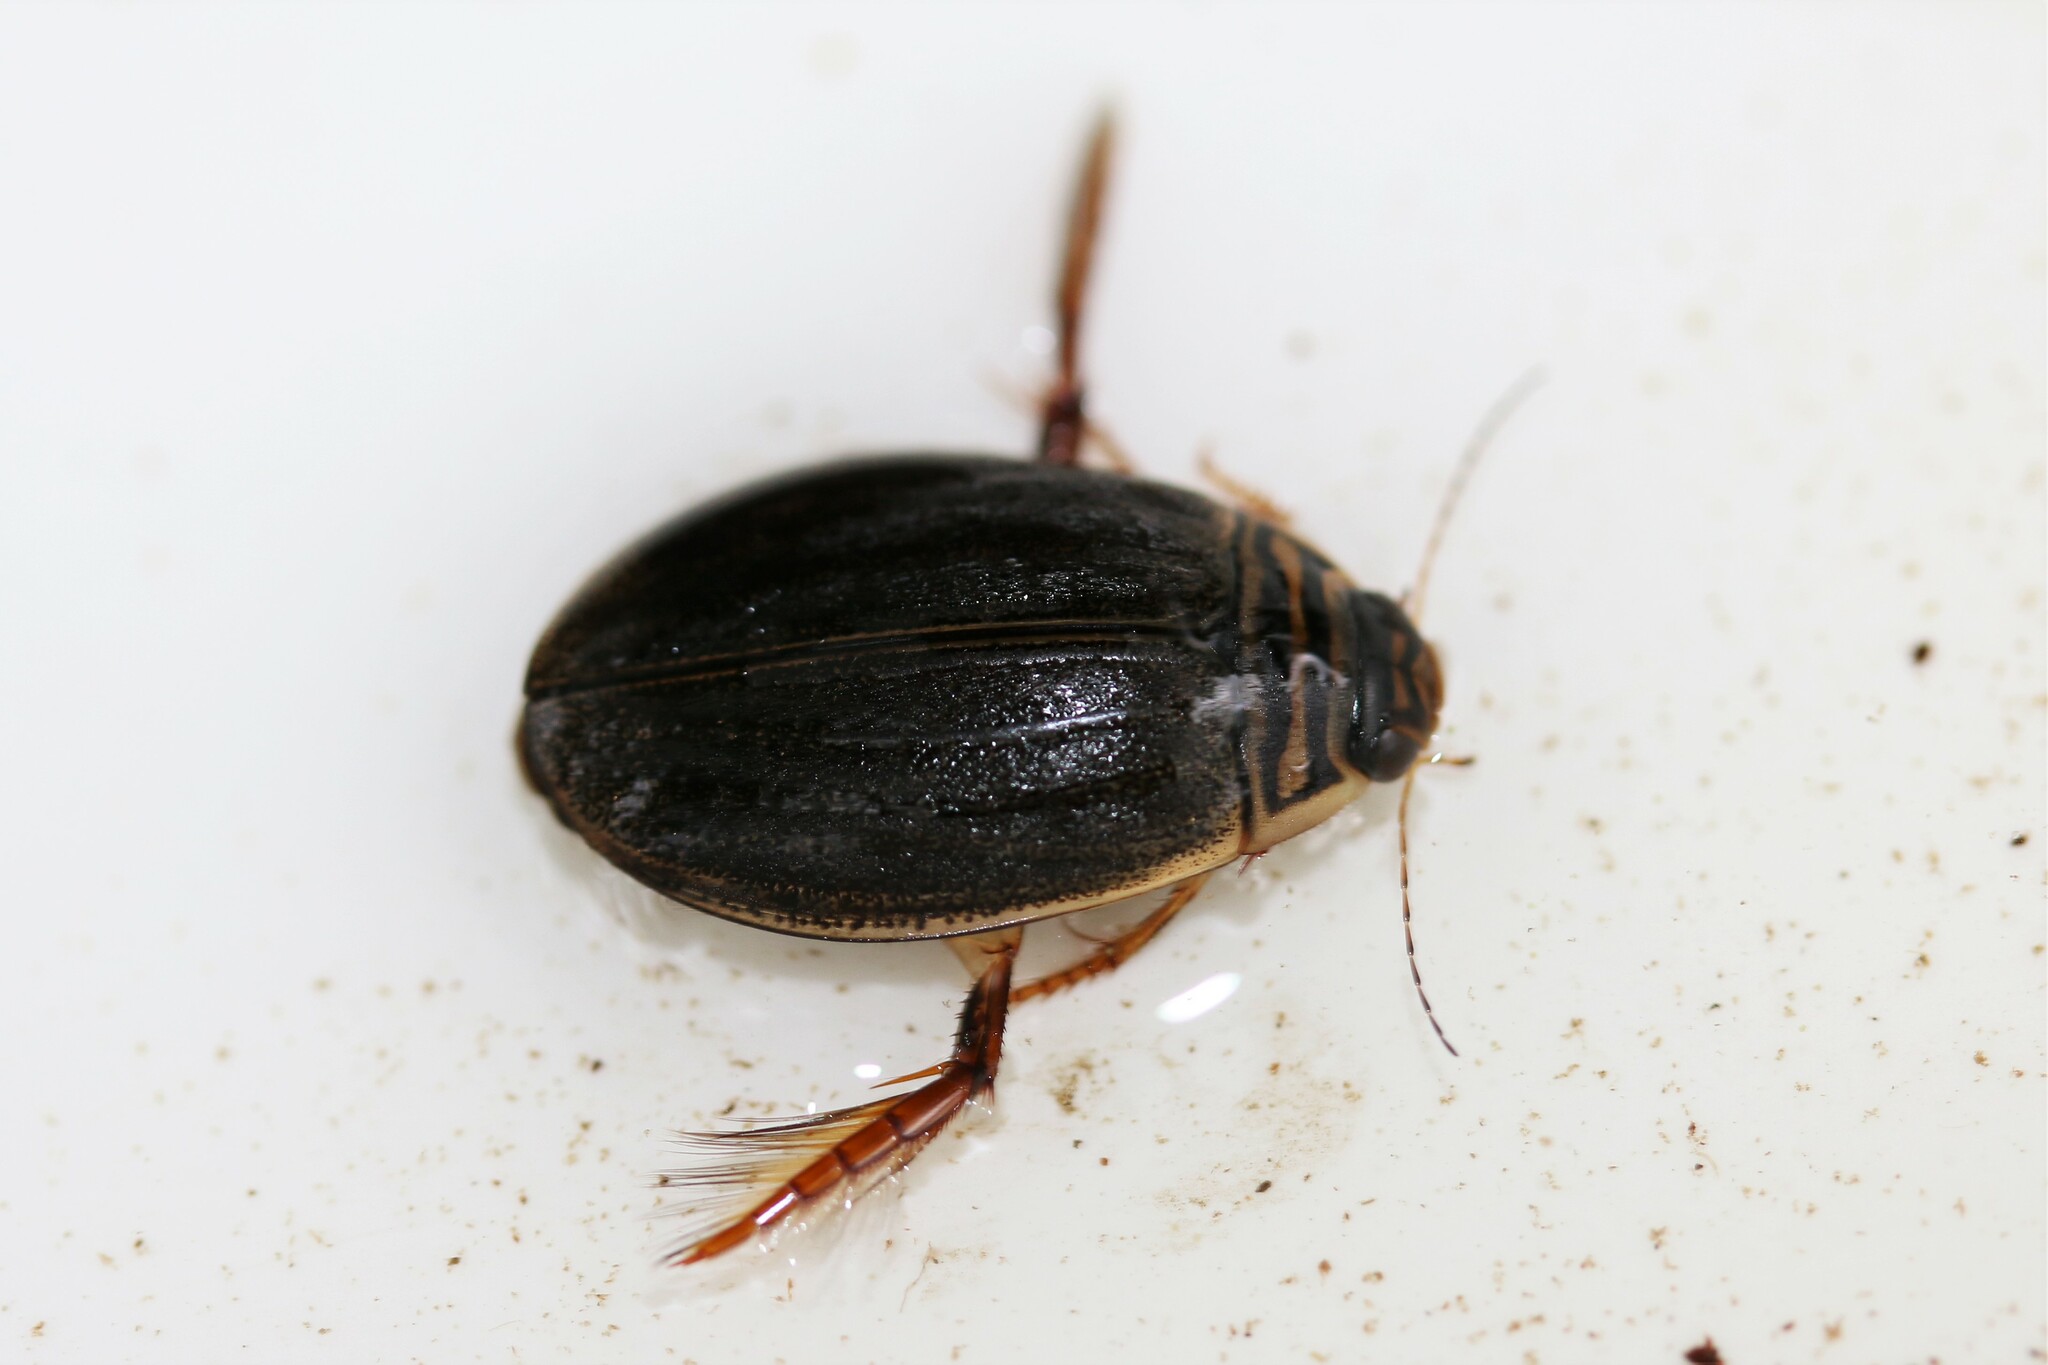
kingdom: Animalia
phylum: Arthropoda
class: Insecta
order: Coleoptera
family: Dytiscidae
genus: Acilius
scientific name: Acilius canaliculatus
